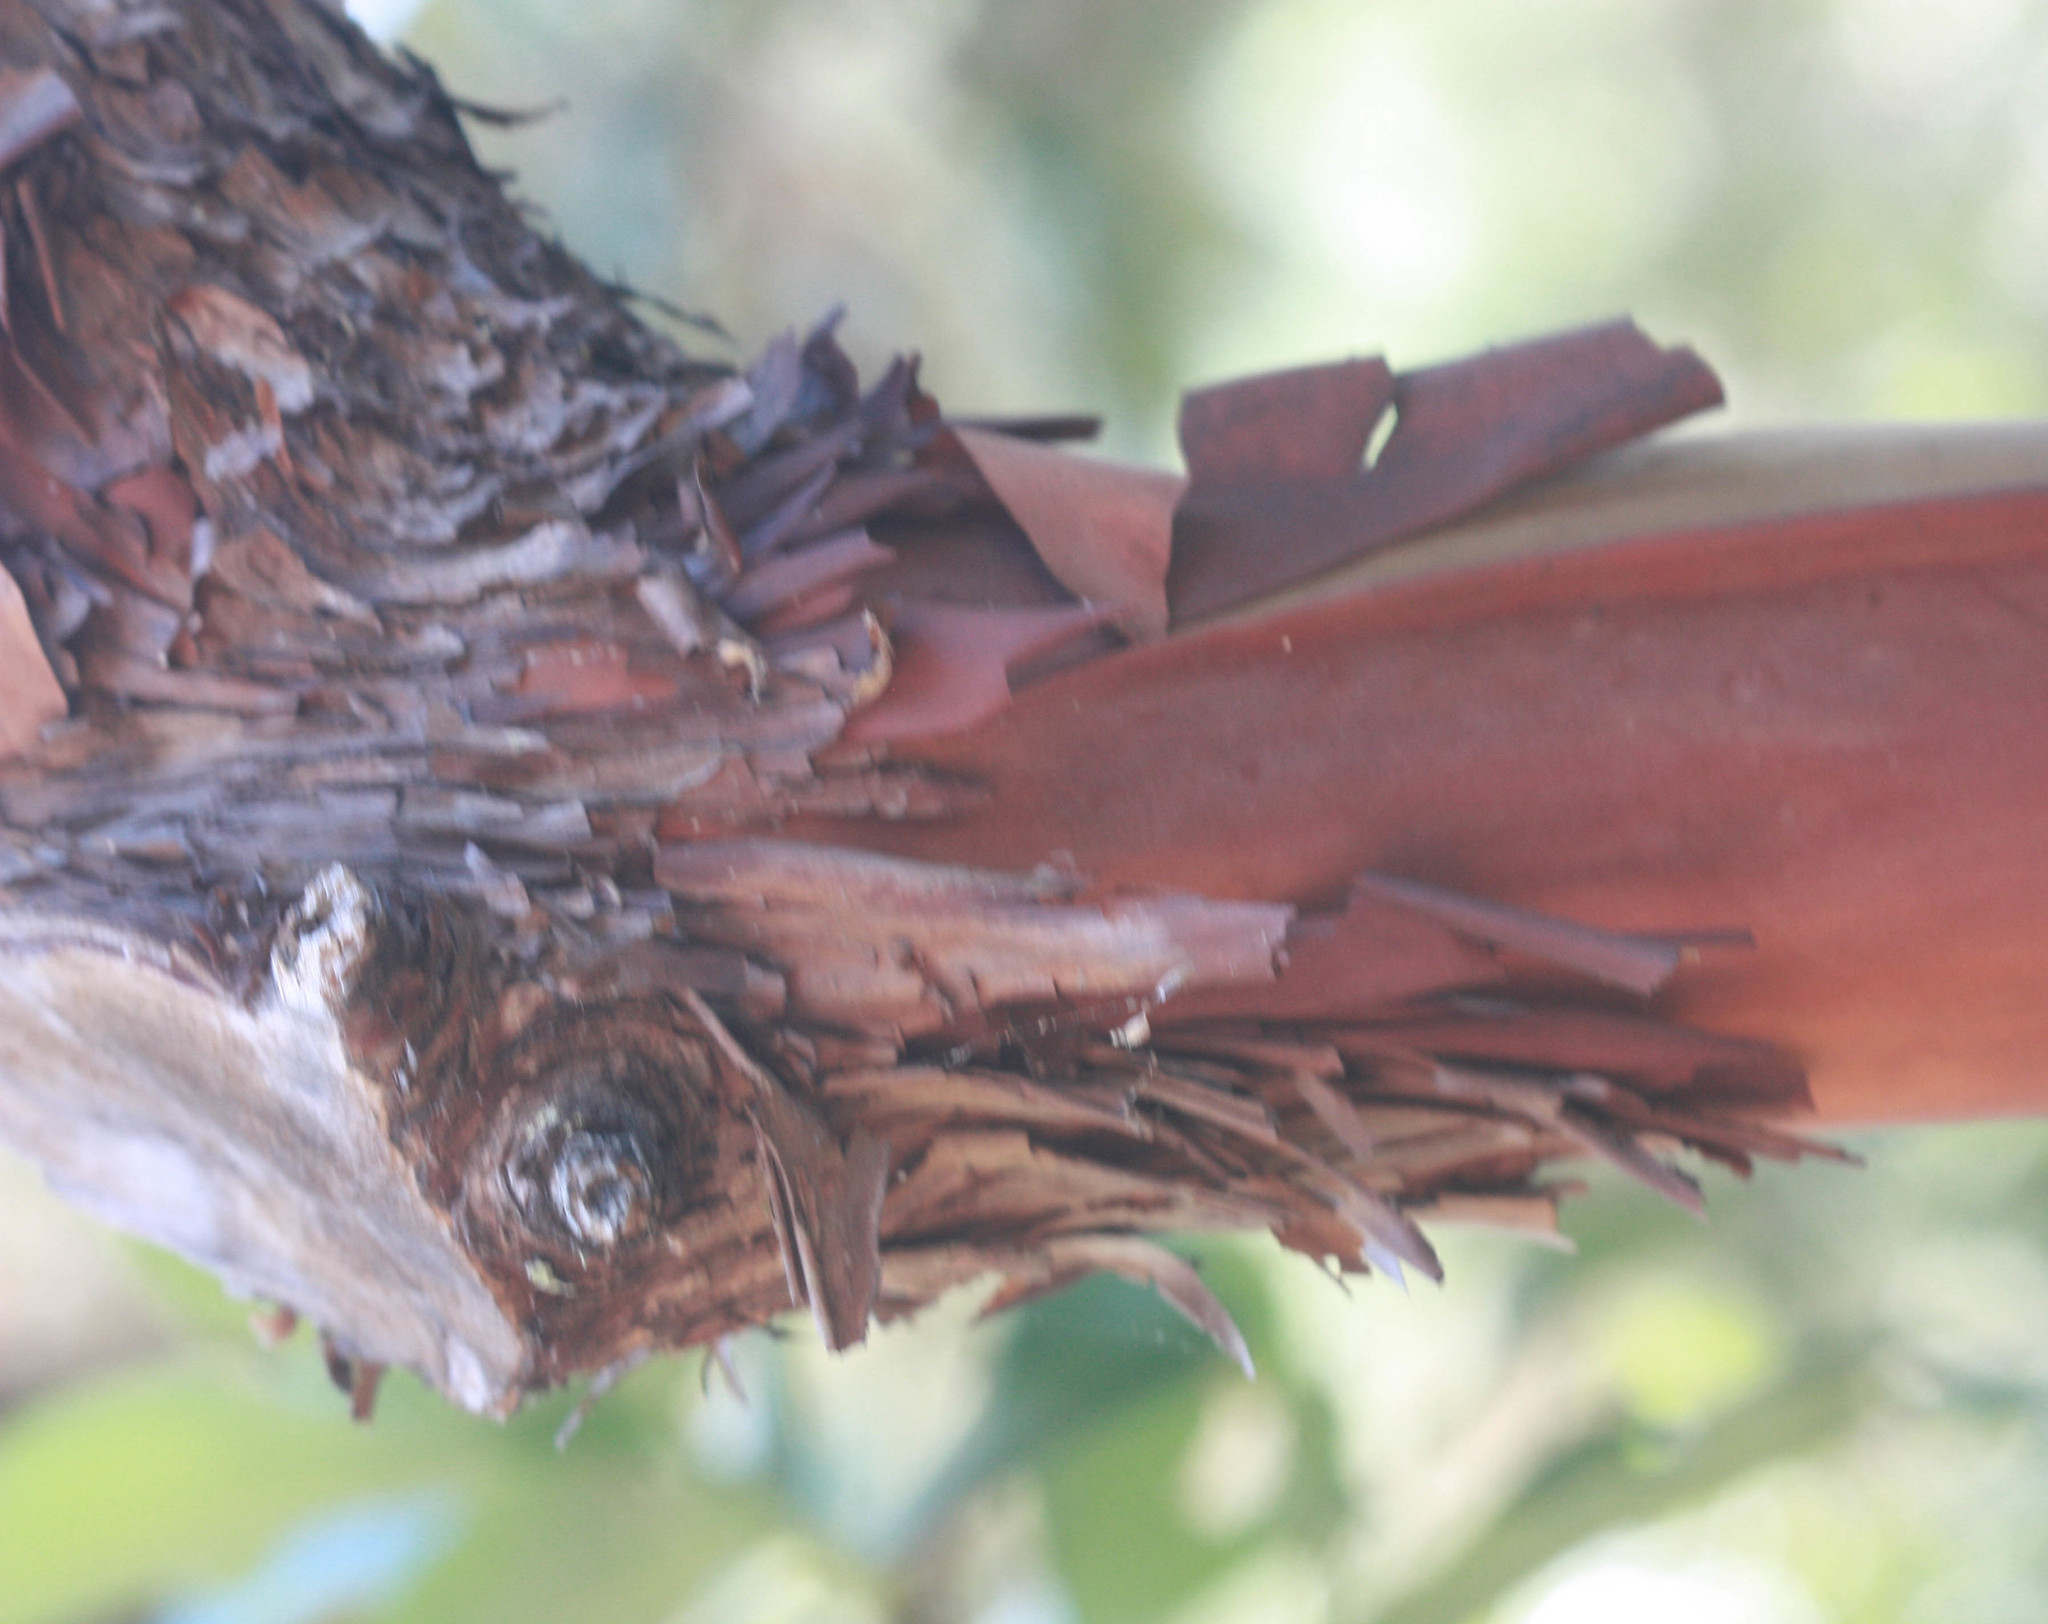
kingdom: Plantae
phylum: Tracheophyta
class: Magnoliopsida
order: Ericales
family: Ericaceae
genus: Arbutus
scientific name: Arbutus menziesii
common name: Pacific madrone
